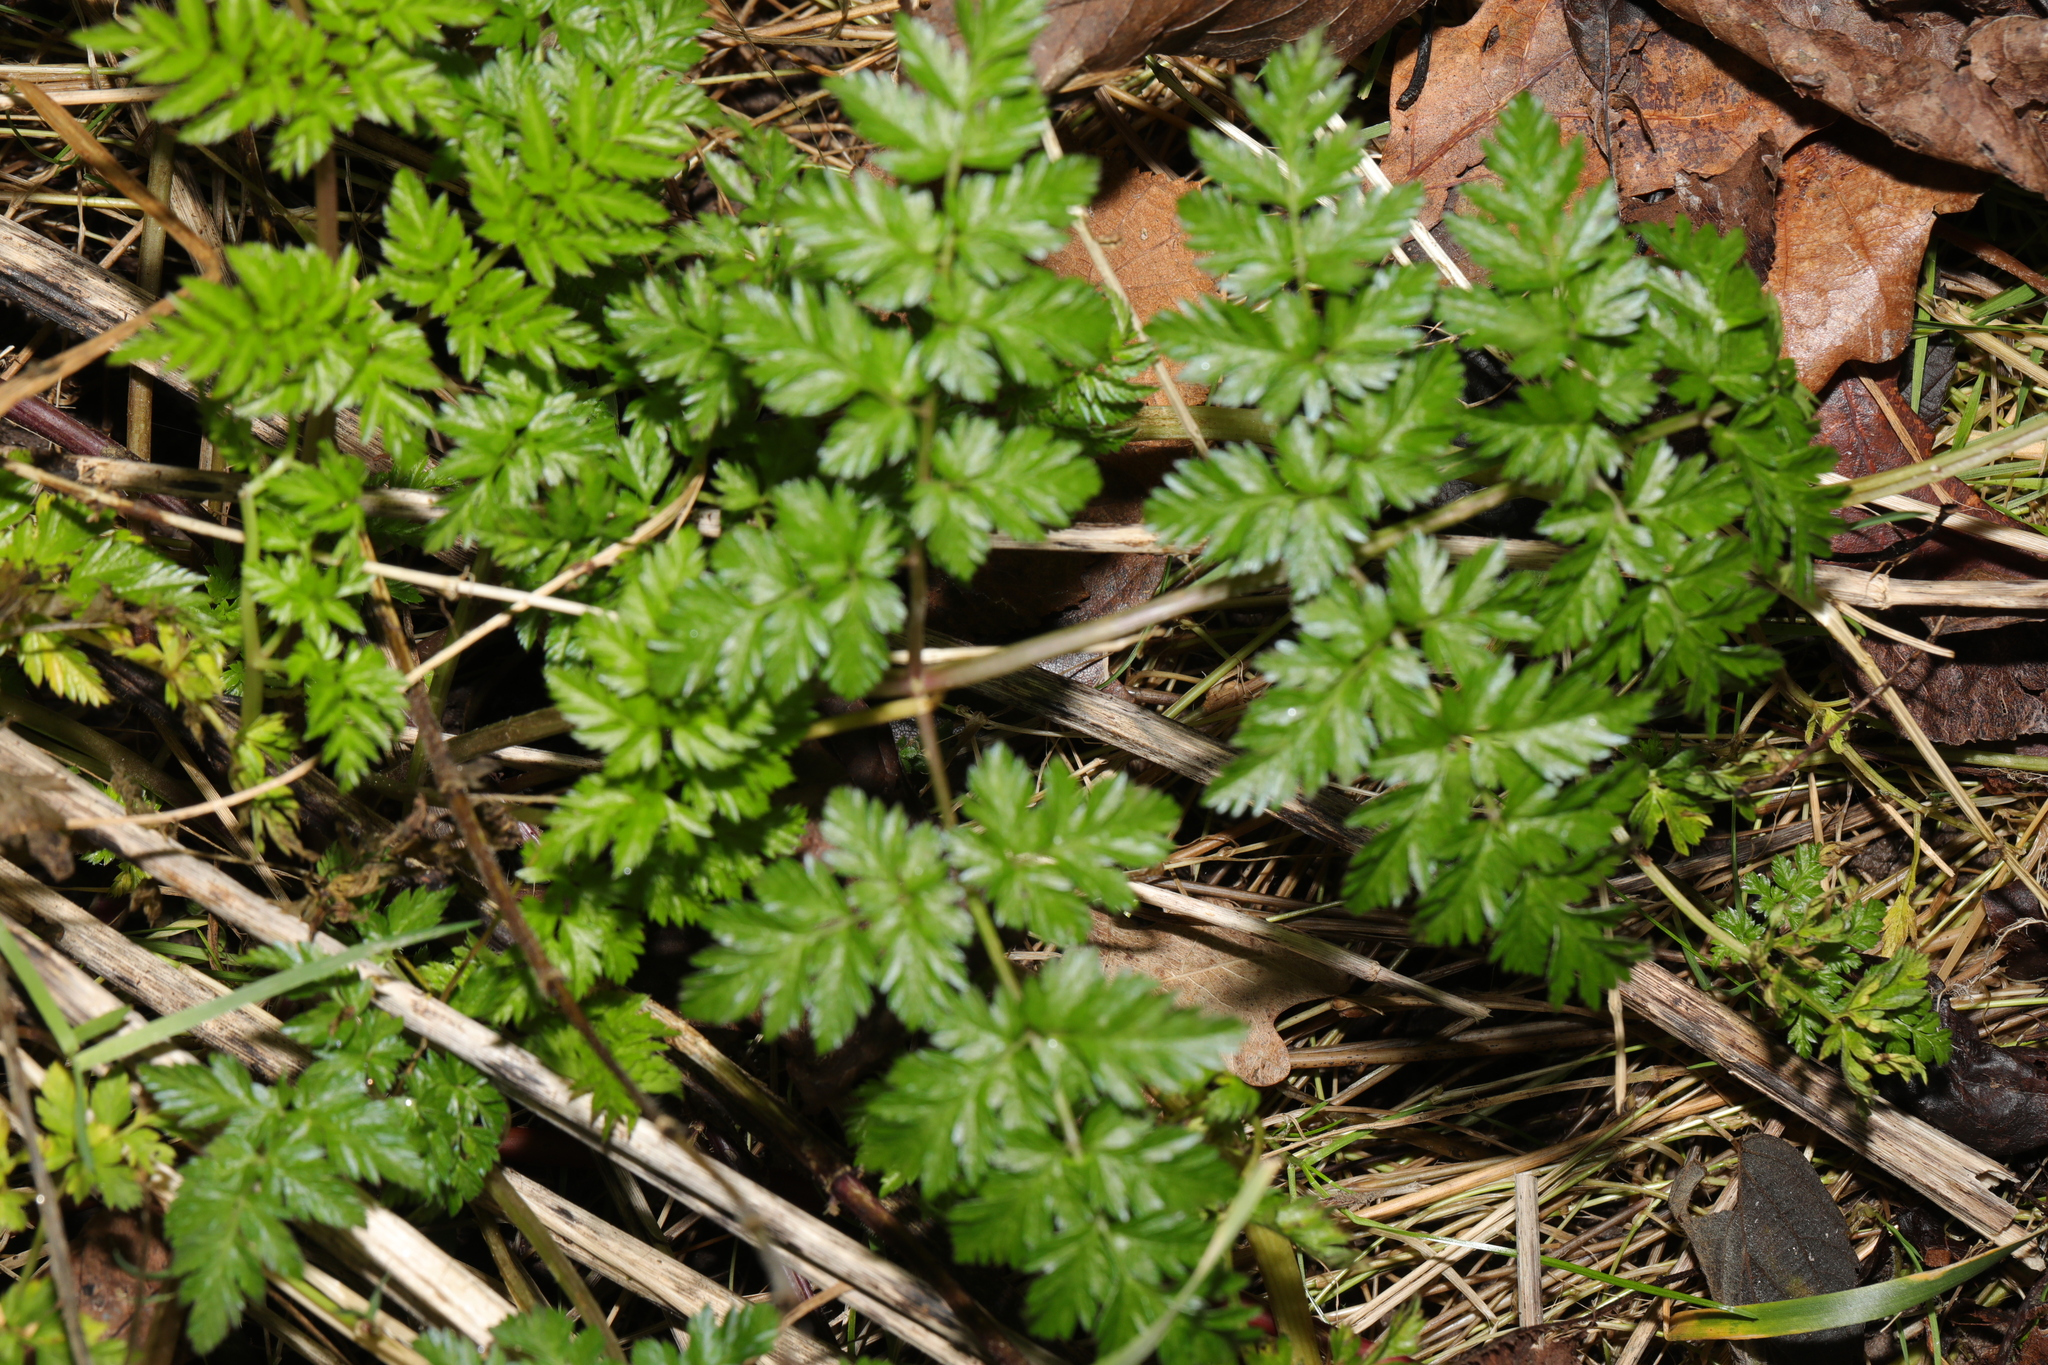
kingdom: Plantae
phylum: Tracheophyta
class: Magnoliopsida
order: Apiales
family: Apiaceae
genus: Anthriscus
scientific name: Anthriscus sylvestris
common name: Cow parsley
